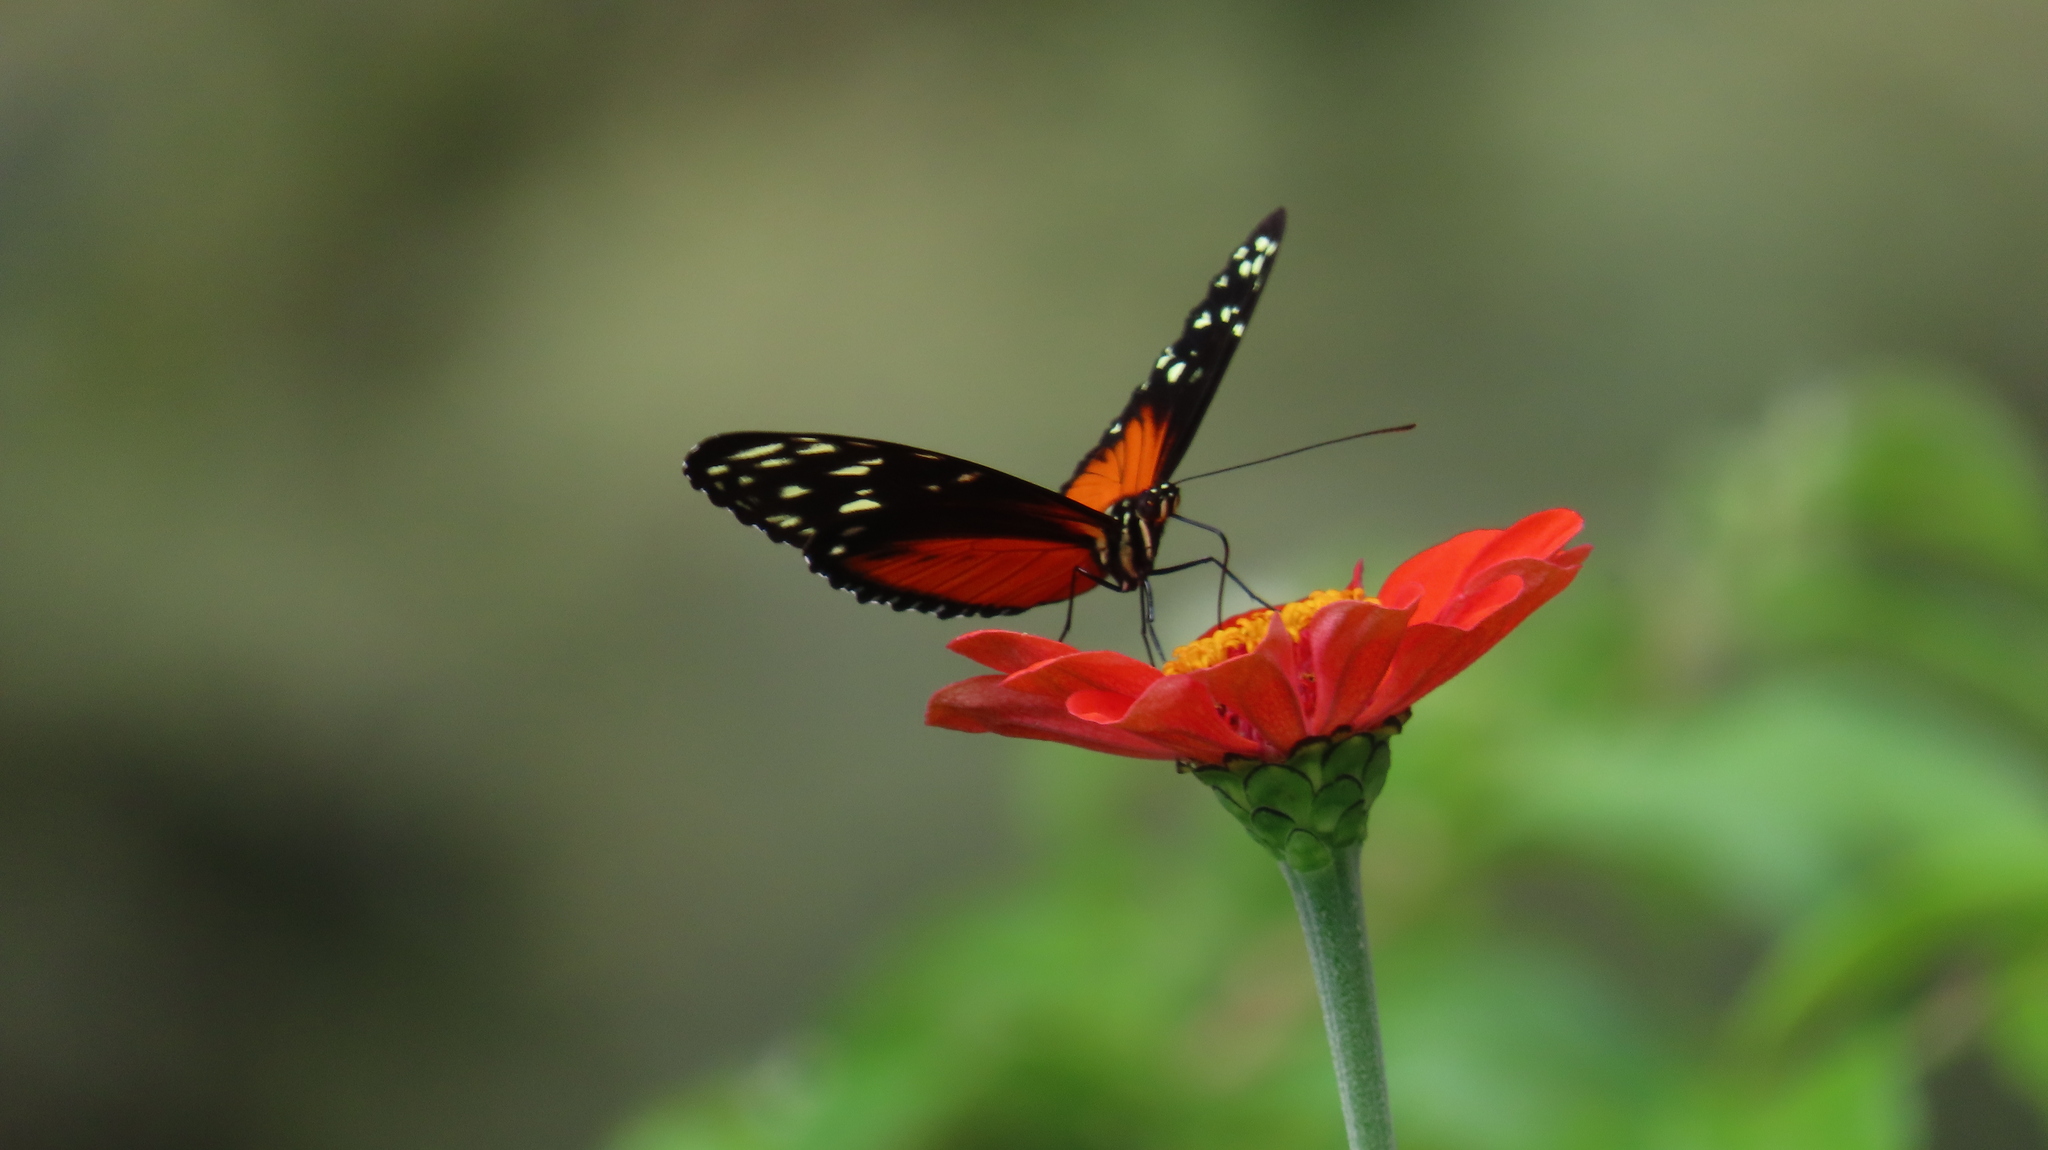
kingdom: Animalia
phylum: Arthropoda
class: Insecta
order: Lepidoptera
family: Nymphalidae
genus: Heliconius
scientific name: Heliconius hecale
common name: Tiger longwing
